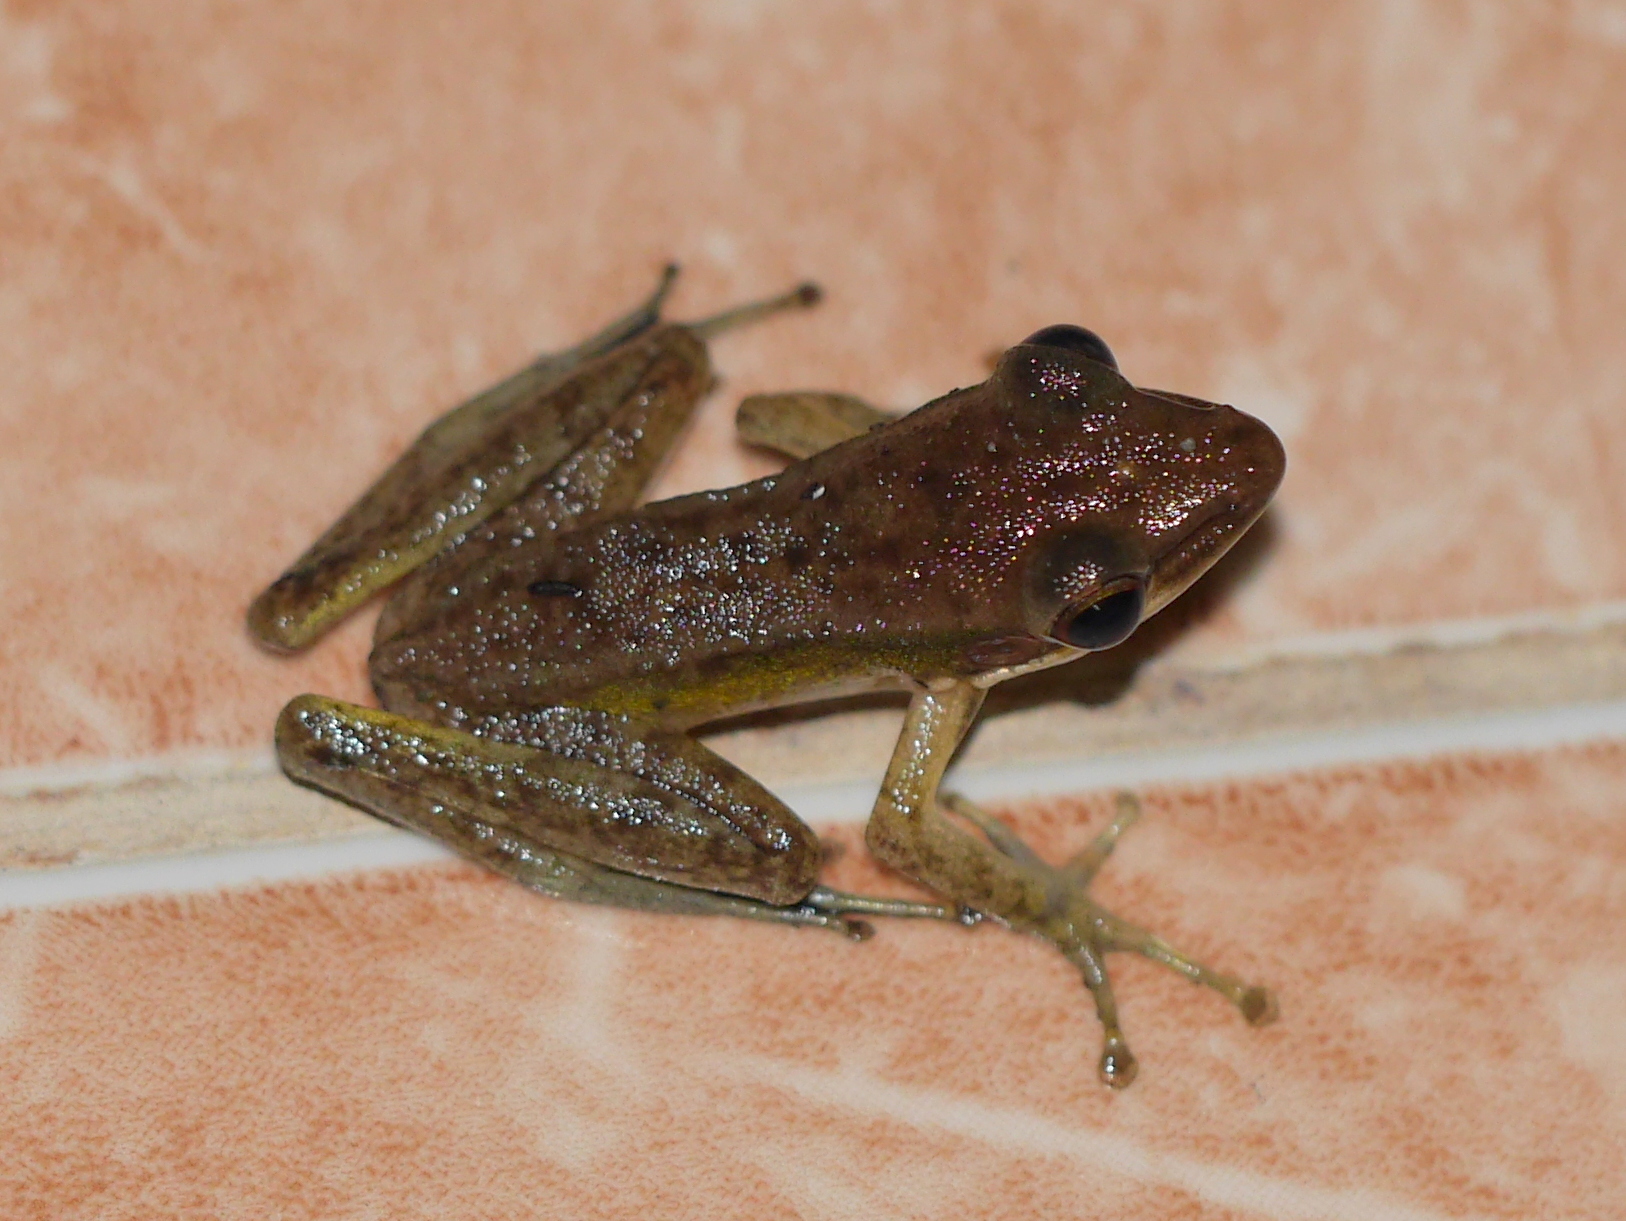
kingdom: Animalia
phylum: Chordata
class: Amphibia
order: Anura
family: Ranidae
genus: Chalcorana
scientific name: Chalcorana chalconota
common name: Schlegel's frog
